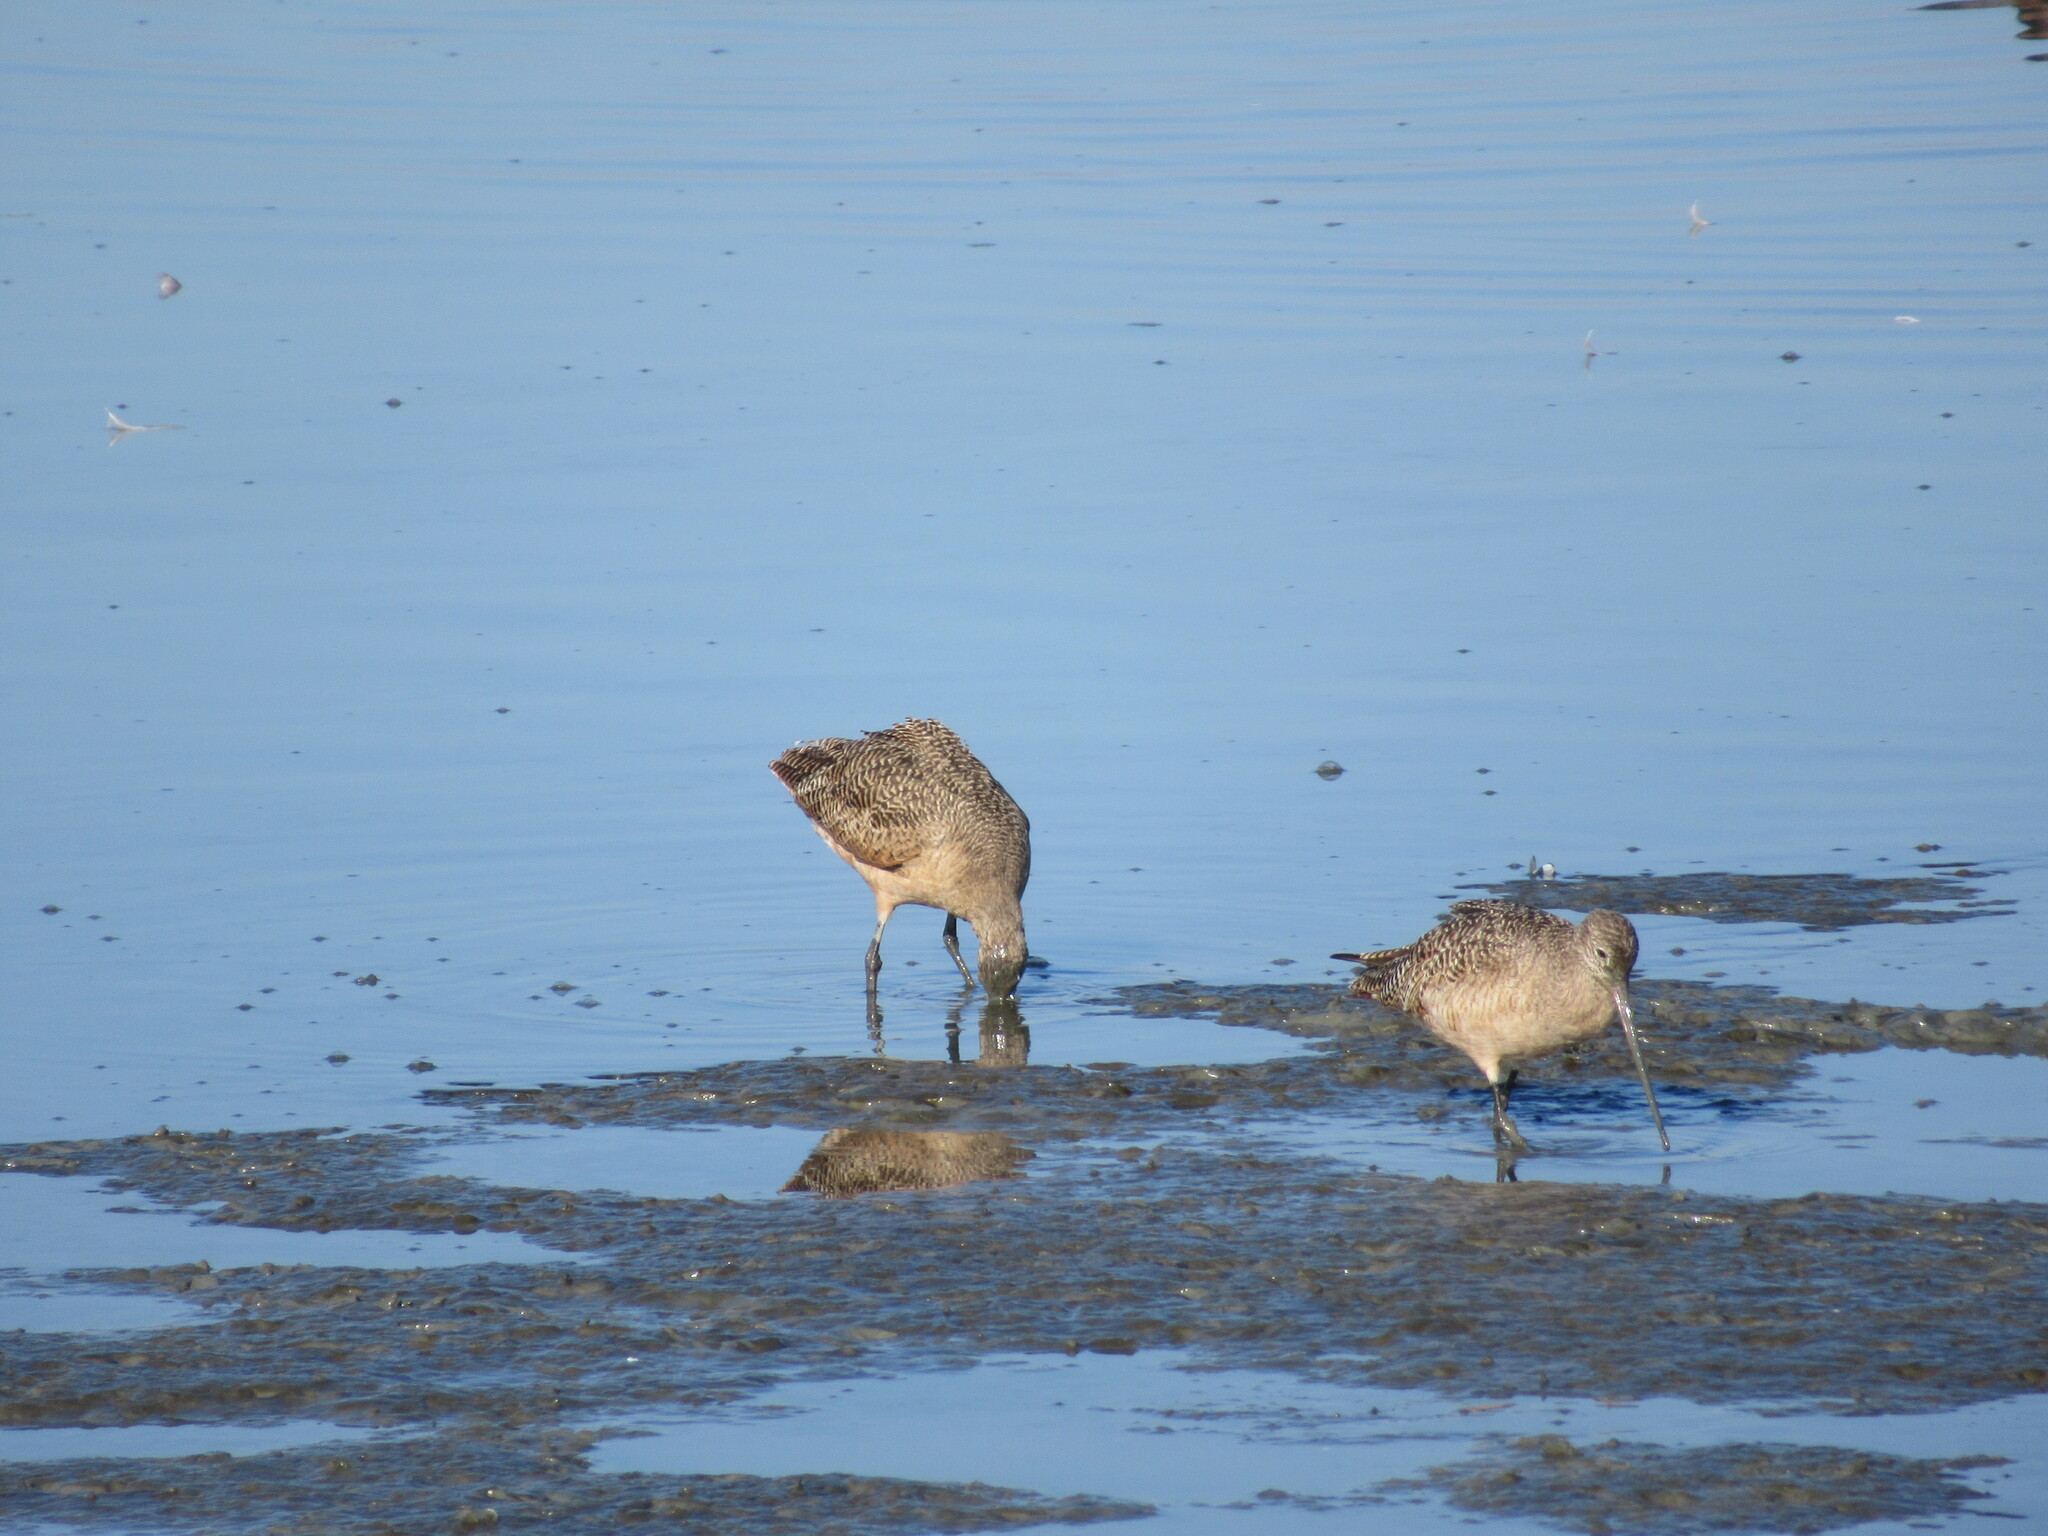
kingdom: Animalia
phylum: Chordata
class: Aves
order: Charadriiformes
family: Scolopacidae
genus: Limosa
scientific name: Limosa fedoa
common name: Marbled godwit
